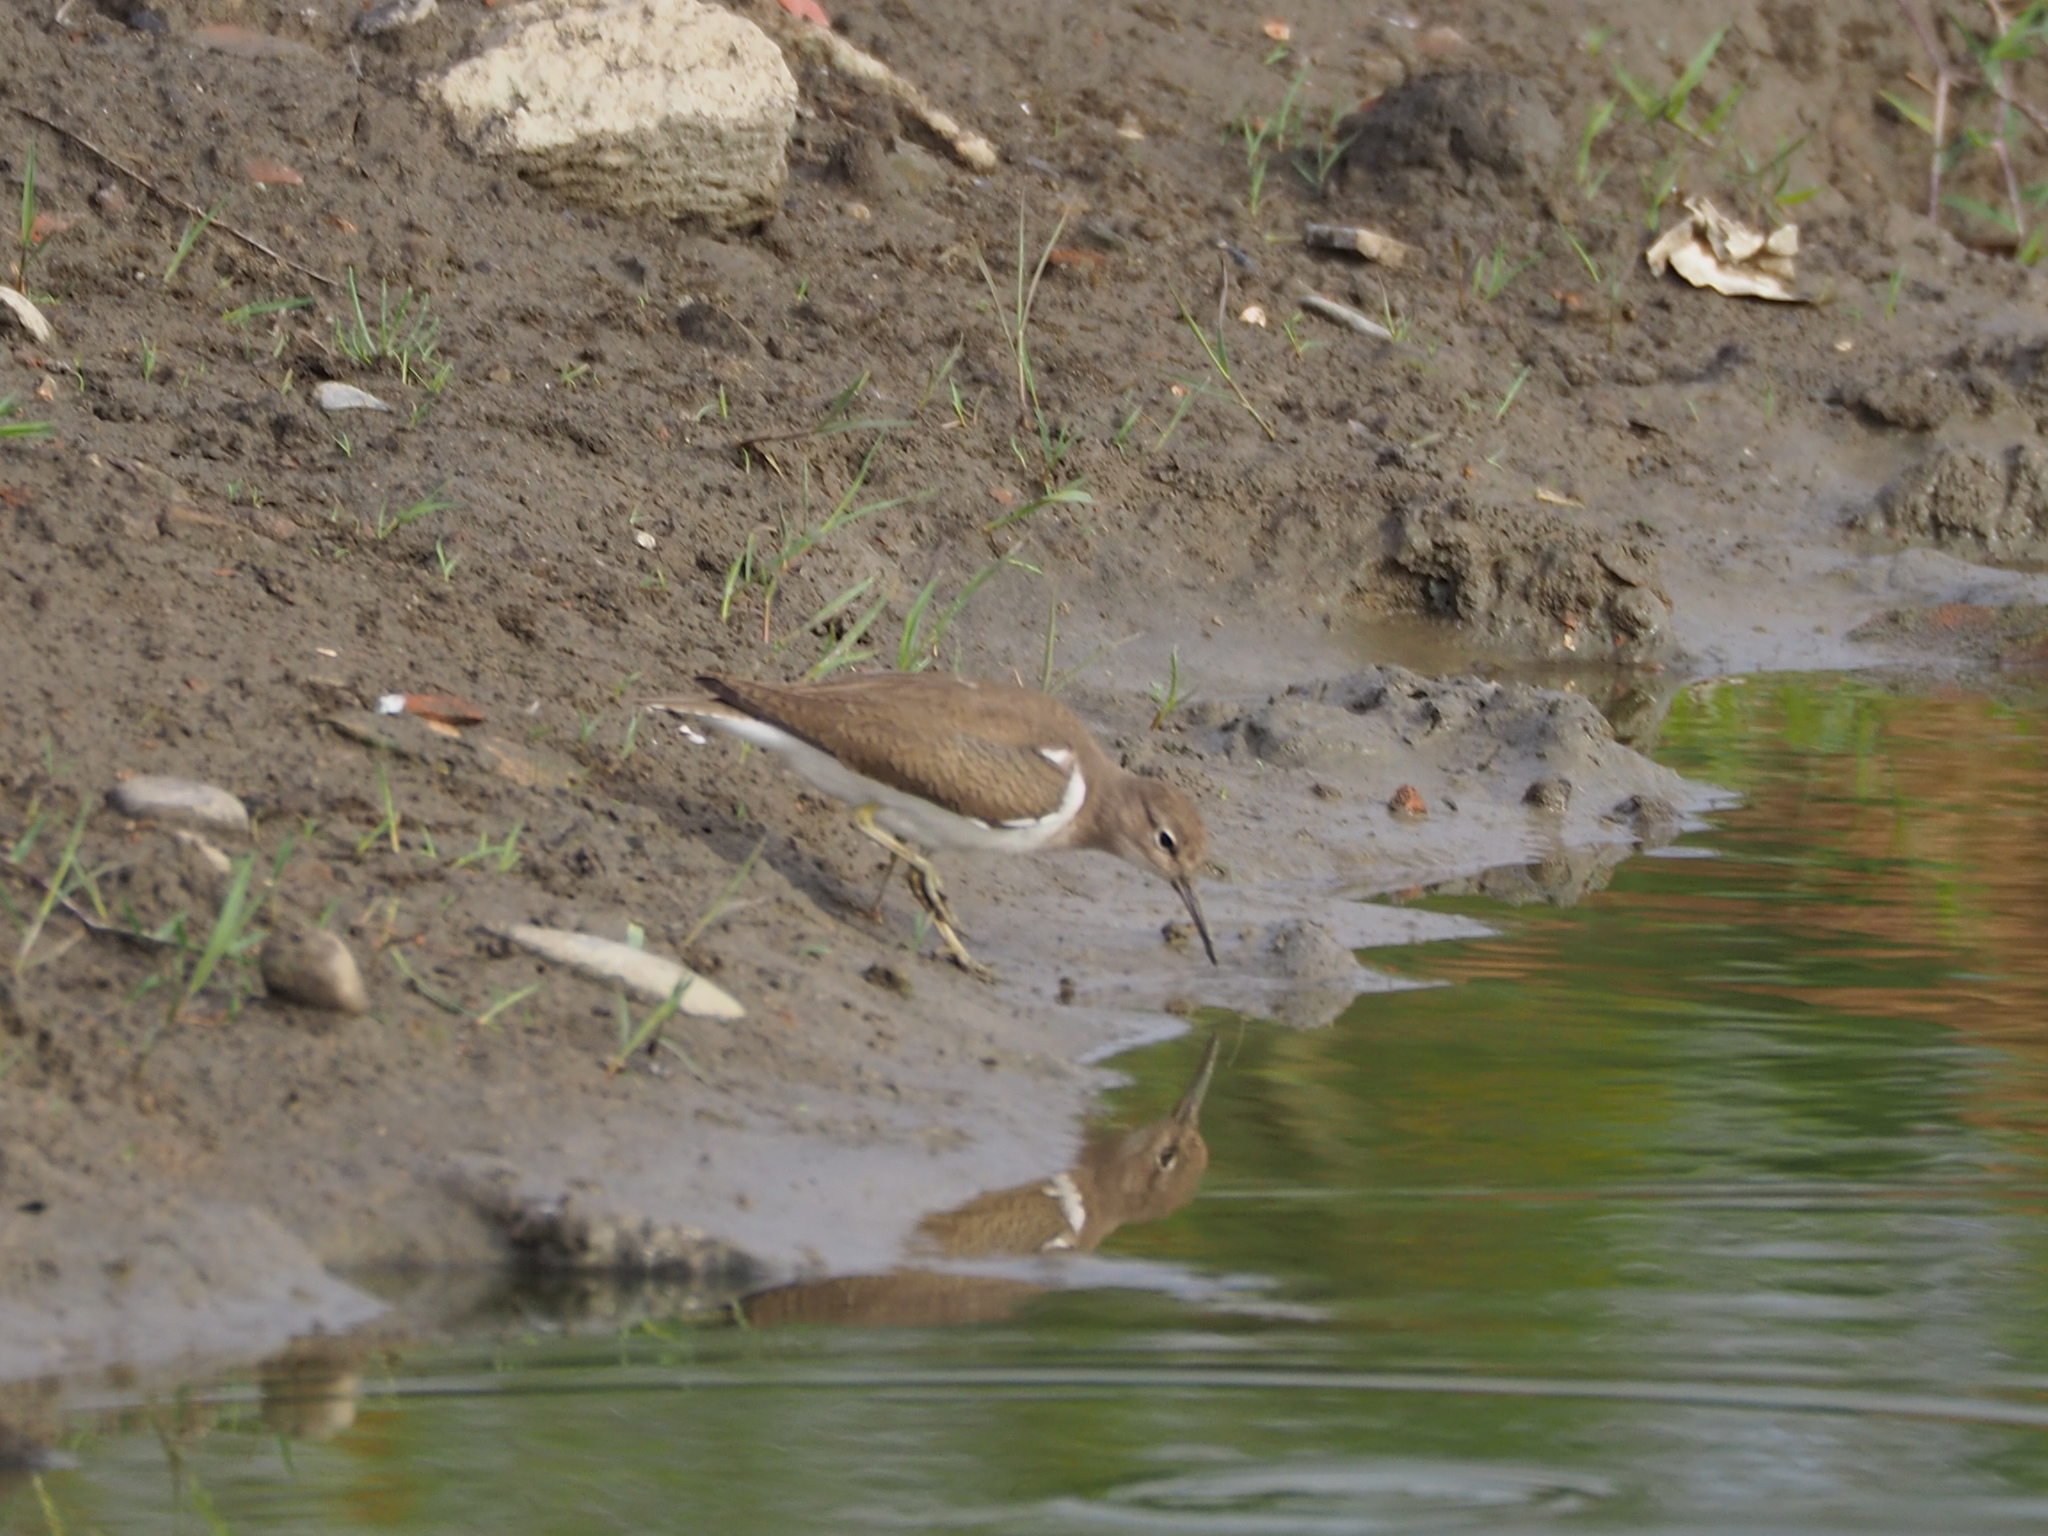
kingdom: Animalia
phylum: Chordata
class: Aves
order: Charadriiformes
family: Scolopacidae
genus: Actitis
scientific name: Actitis hypoleucos
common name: Common sandpiper
